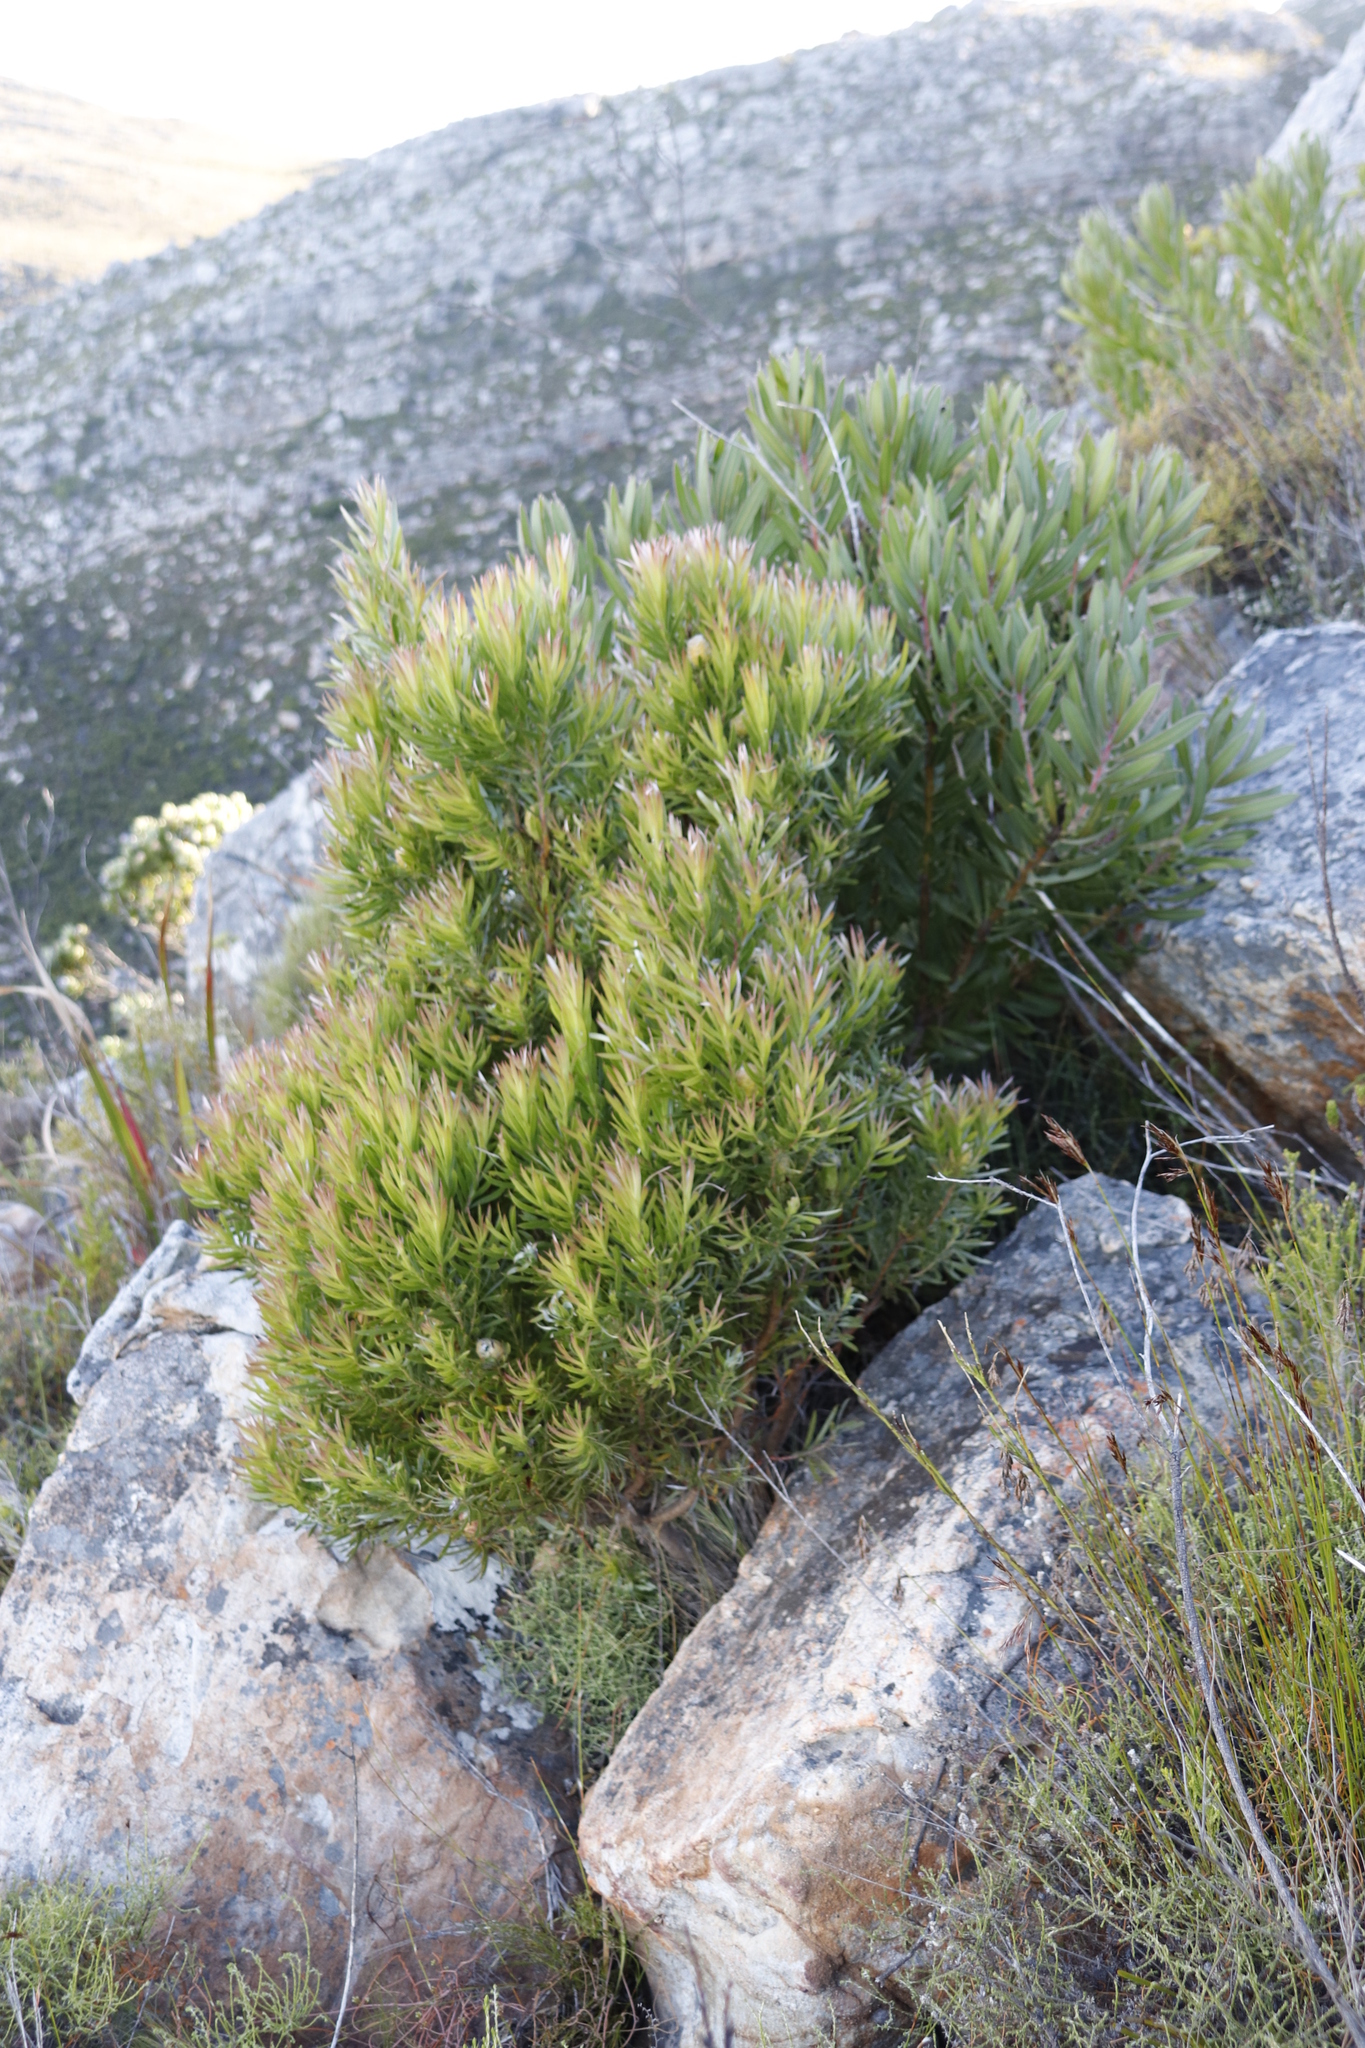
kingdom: Plantae
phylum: Tracheophyta
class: Magnoliopsida
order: Proteales
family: Proteaceae
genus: Leucadendron
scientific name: Leucadendron xanthoconus
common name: Sickle-leaf conebush
